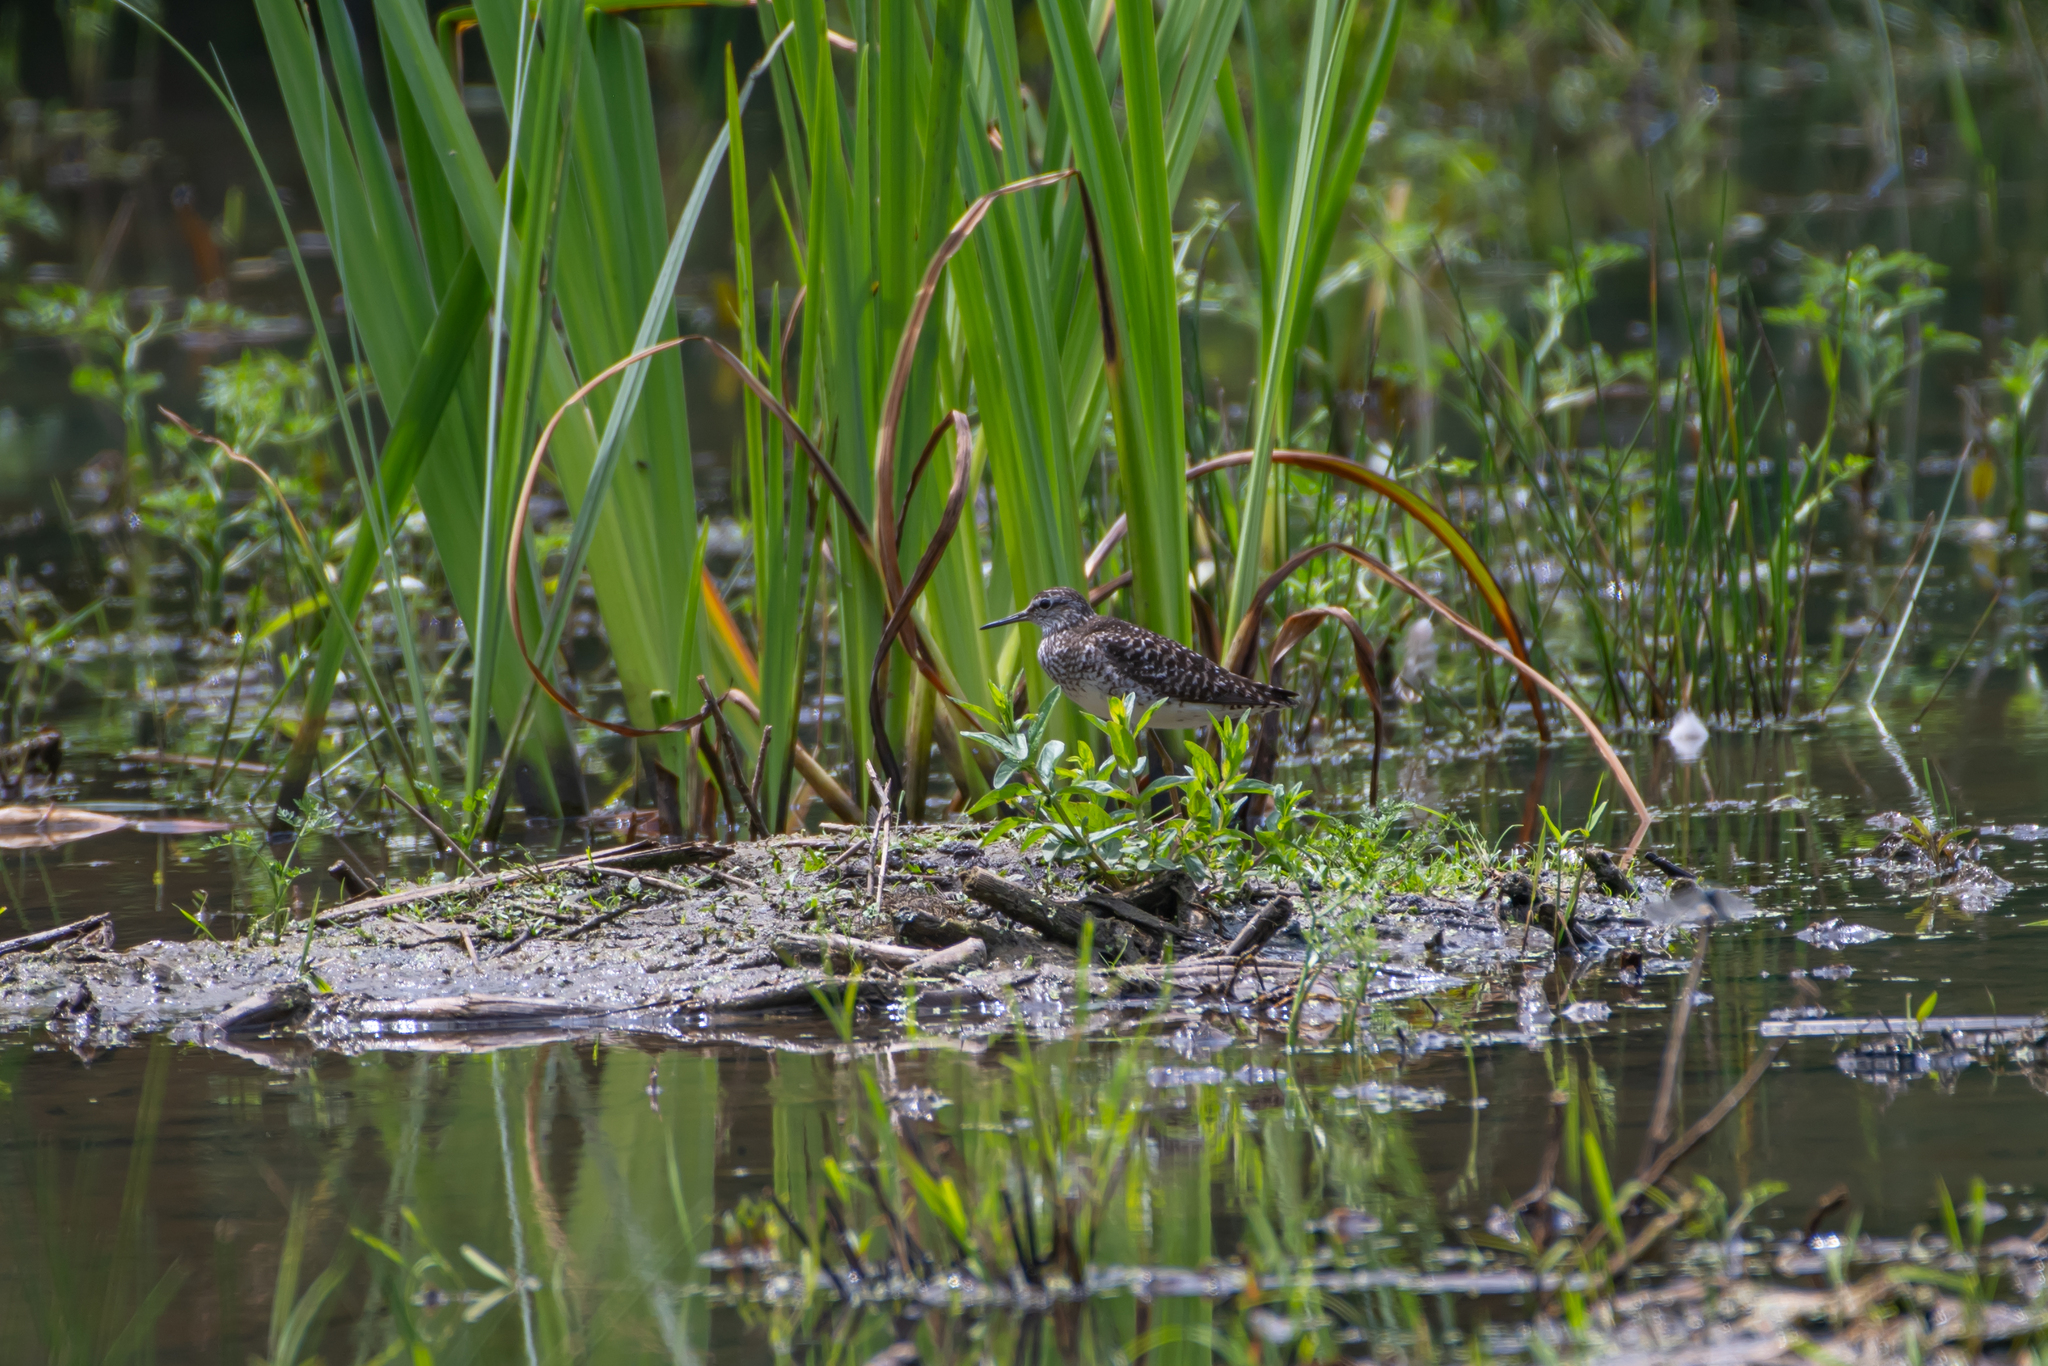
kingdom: Animalia
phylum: Chordata
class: Aves
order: Charadriiformes
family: Scolopacidae
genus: Tringa
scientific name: Tringa glareola
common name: Wood sandpiper
